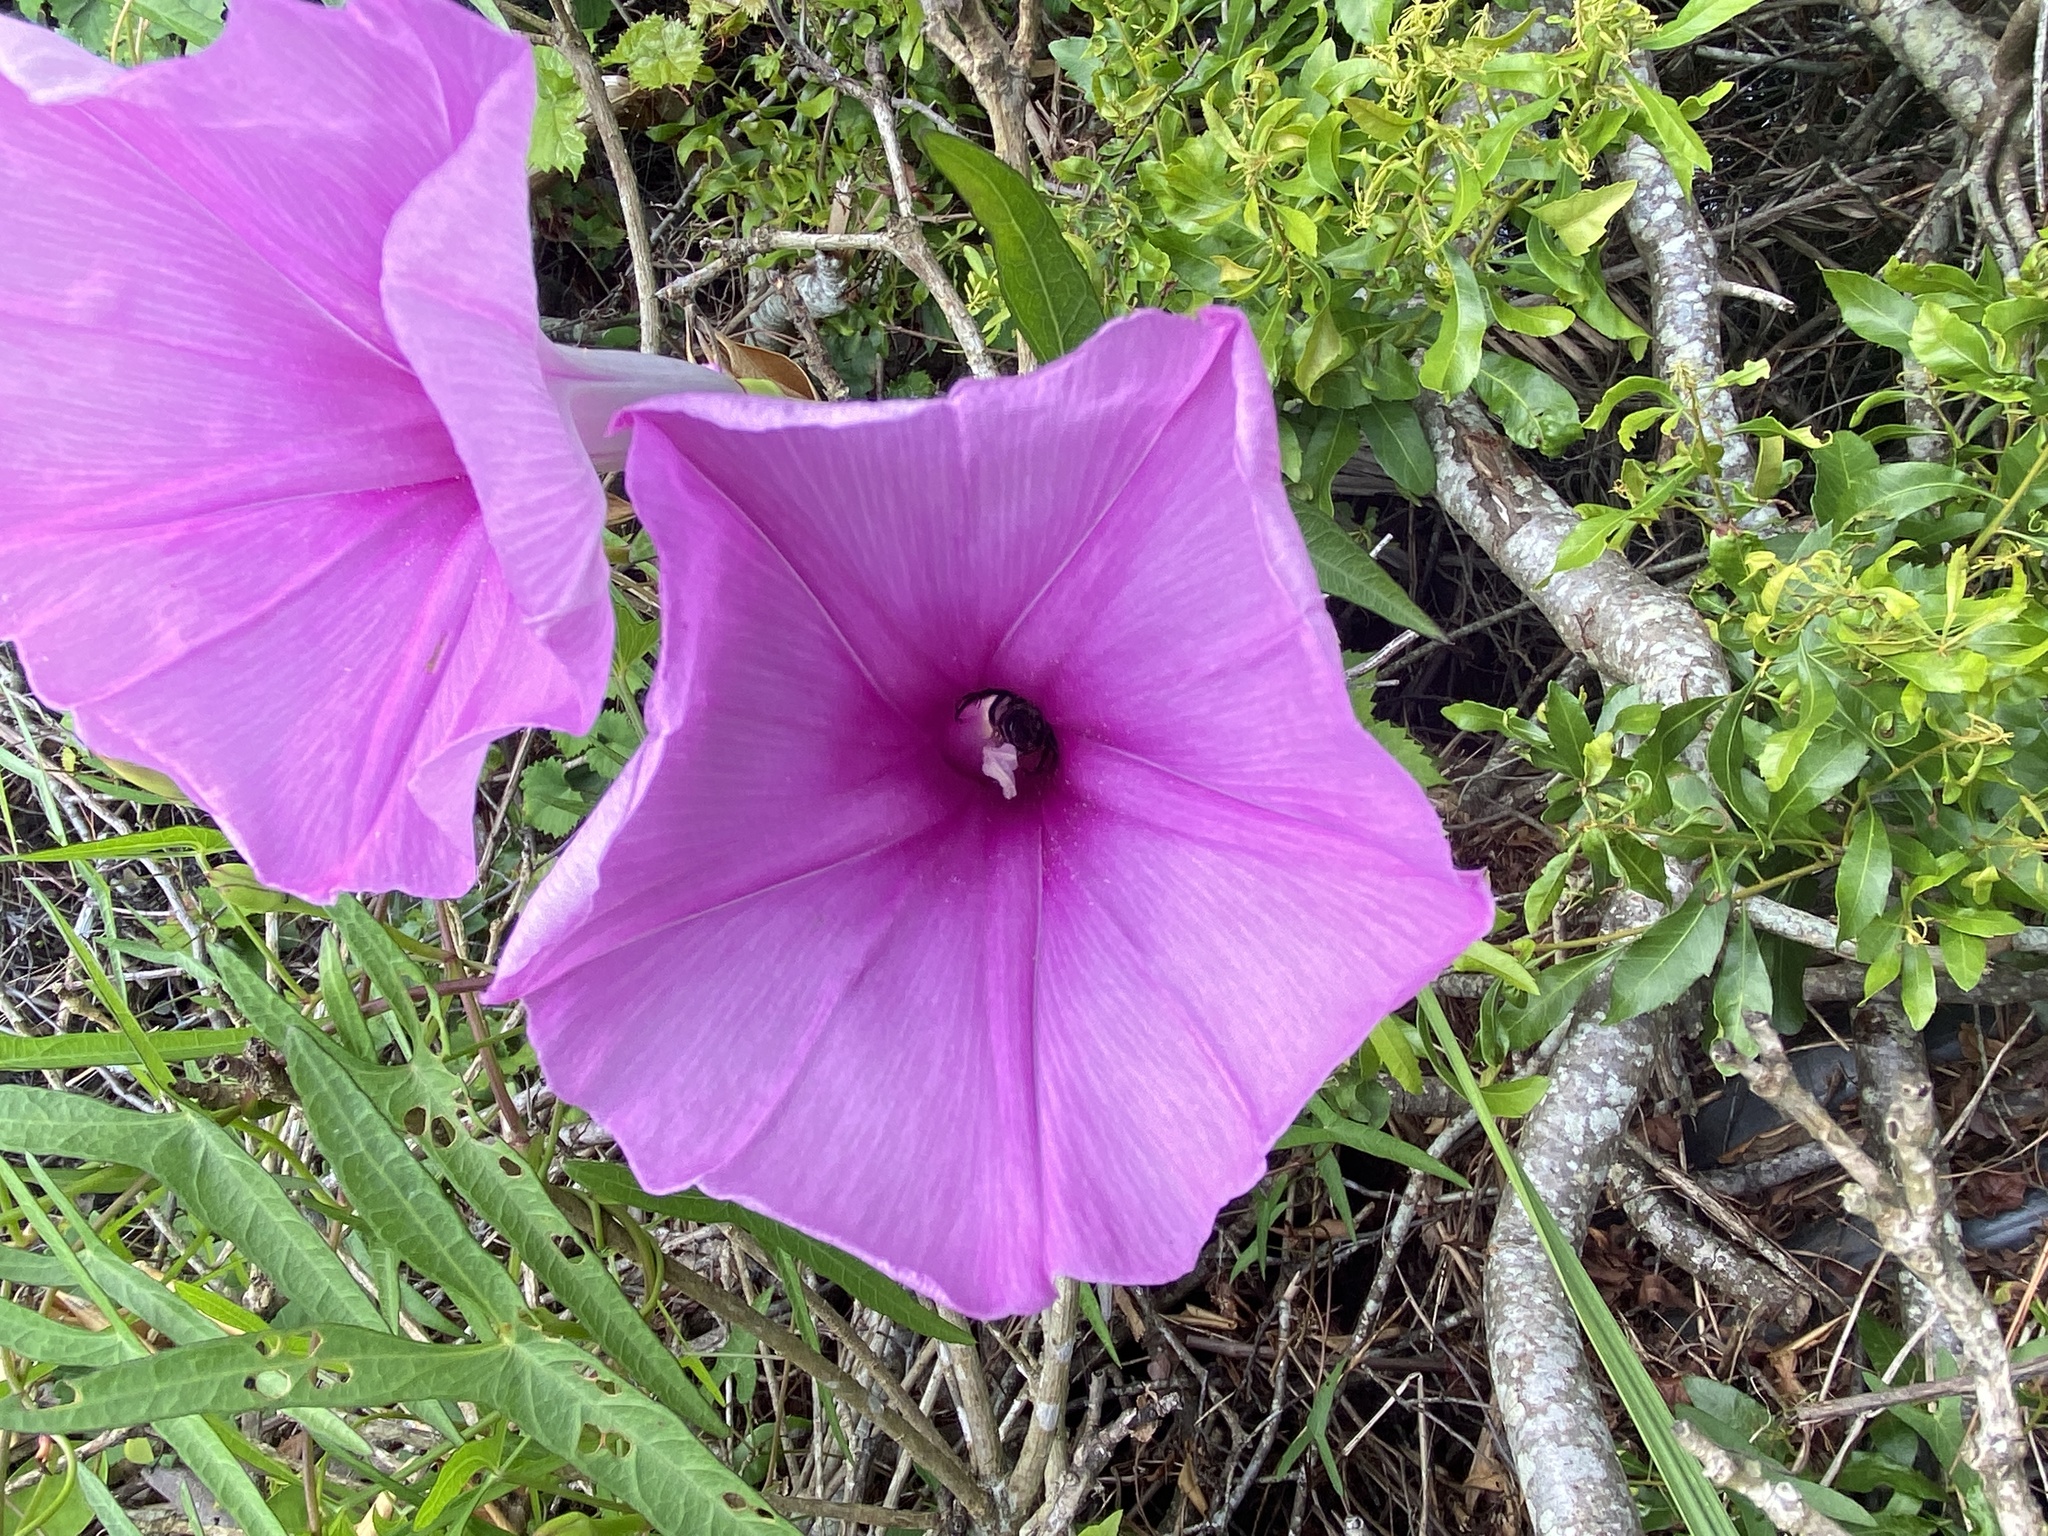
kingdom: Plantae
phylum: Tracheophyta
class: Magnoliopsida
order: Solanales
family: Convolvulaceae
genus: Ipomoea
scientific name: Ipomoea sagittata
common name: Saltmarsh morning glory
